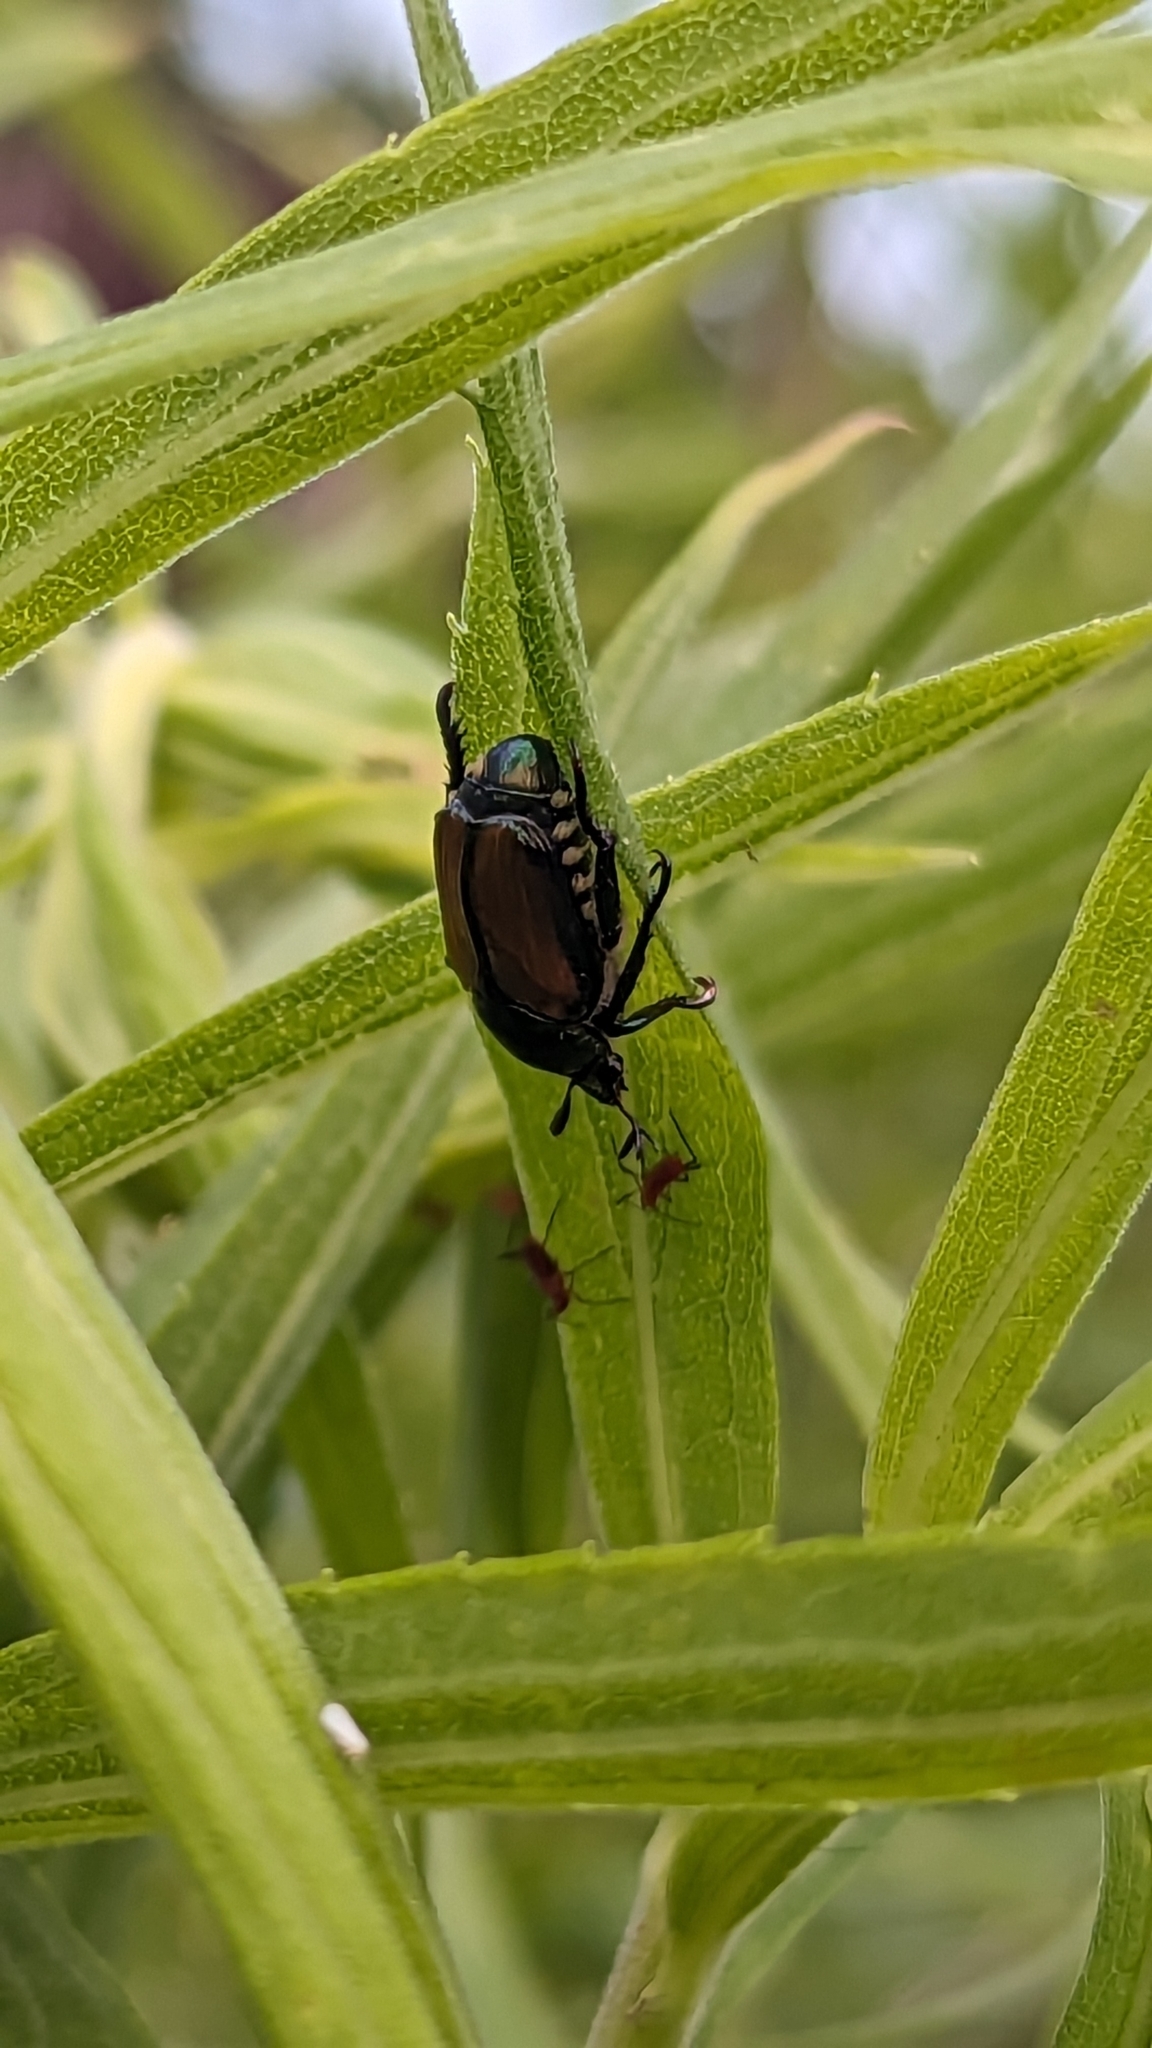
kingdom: Animalia
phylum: Arthropoda
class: Insecta
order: Coleoptera
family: Scarabaeidae
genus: Popillia
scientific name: Popillia japonica
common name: Japanese beetle
